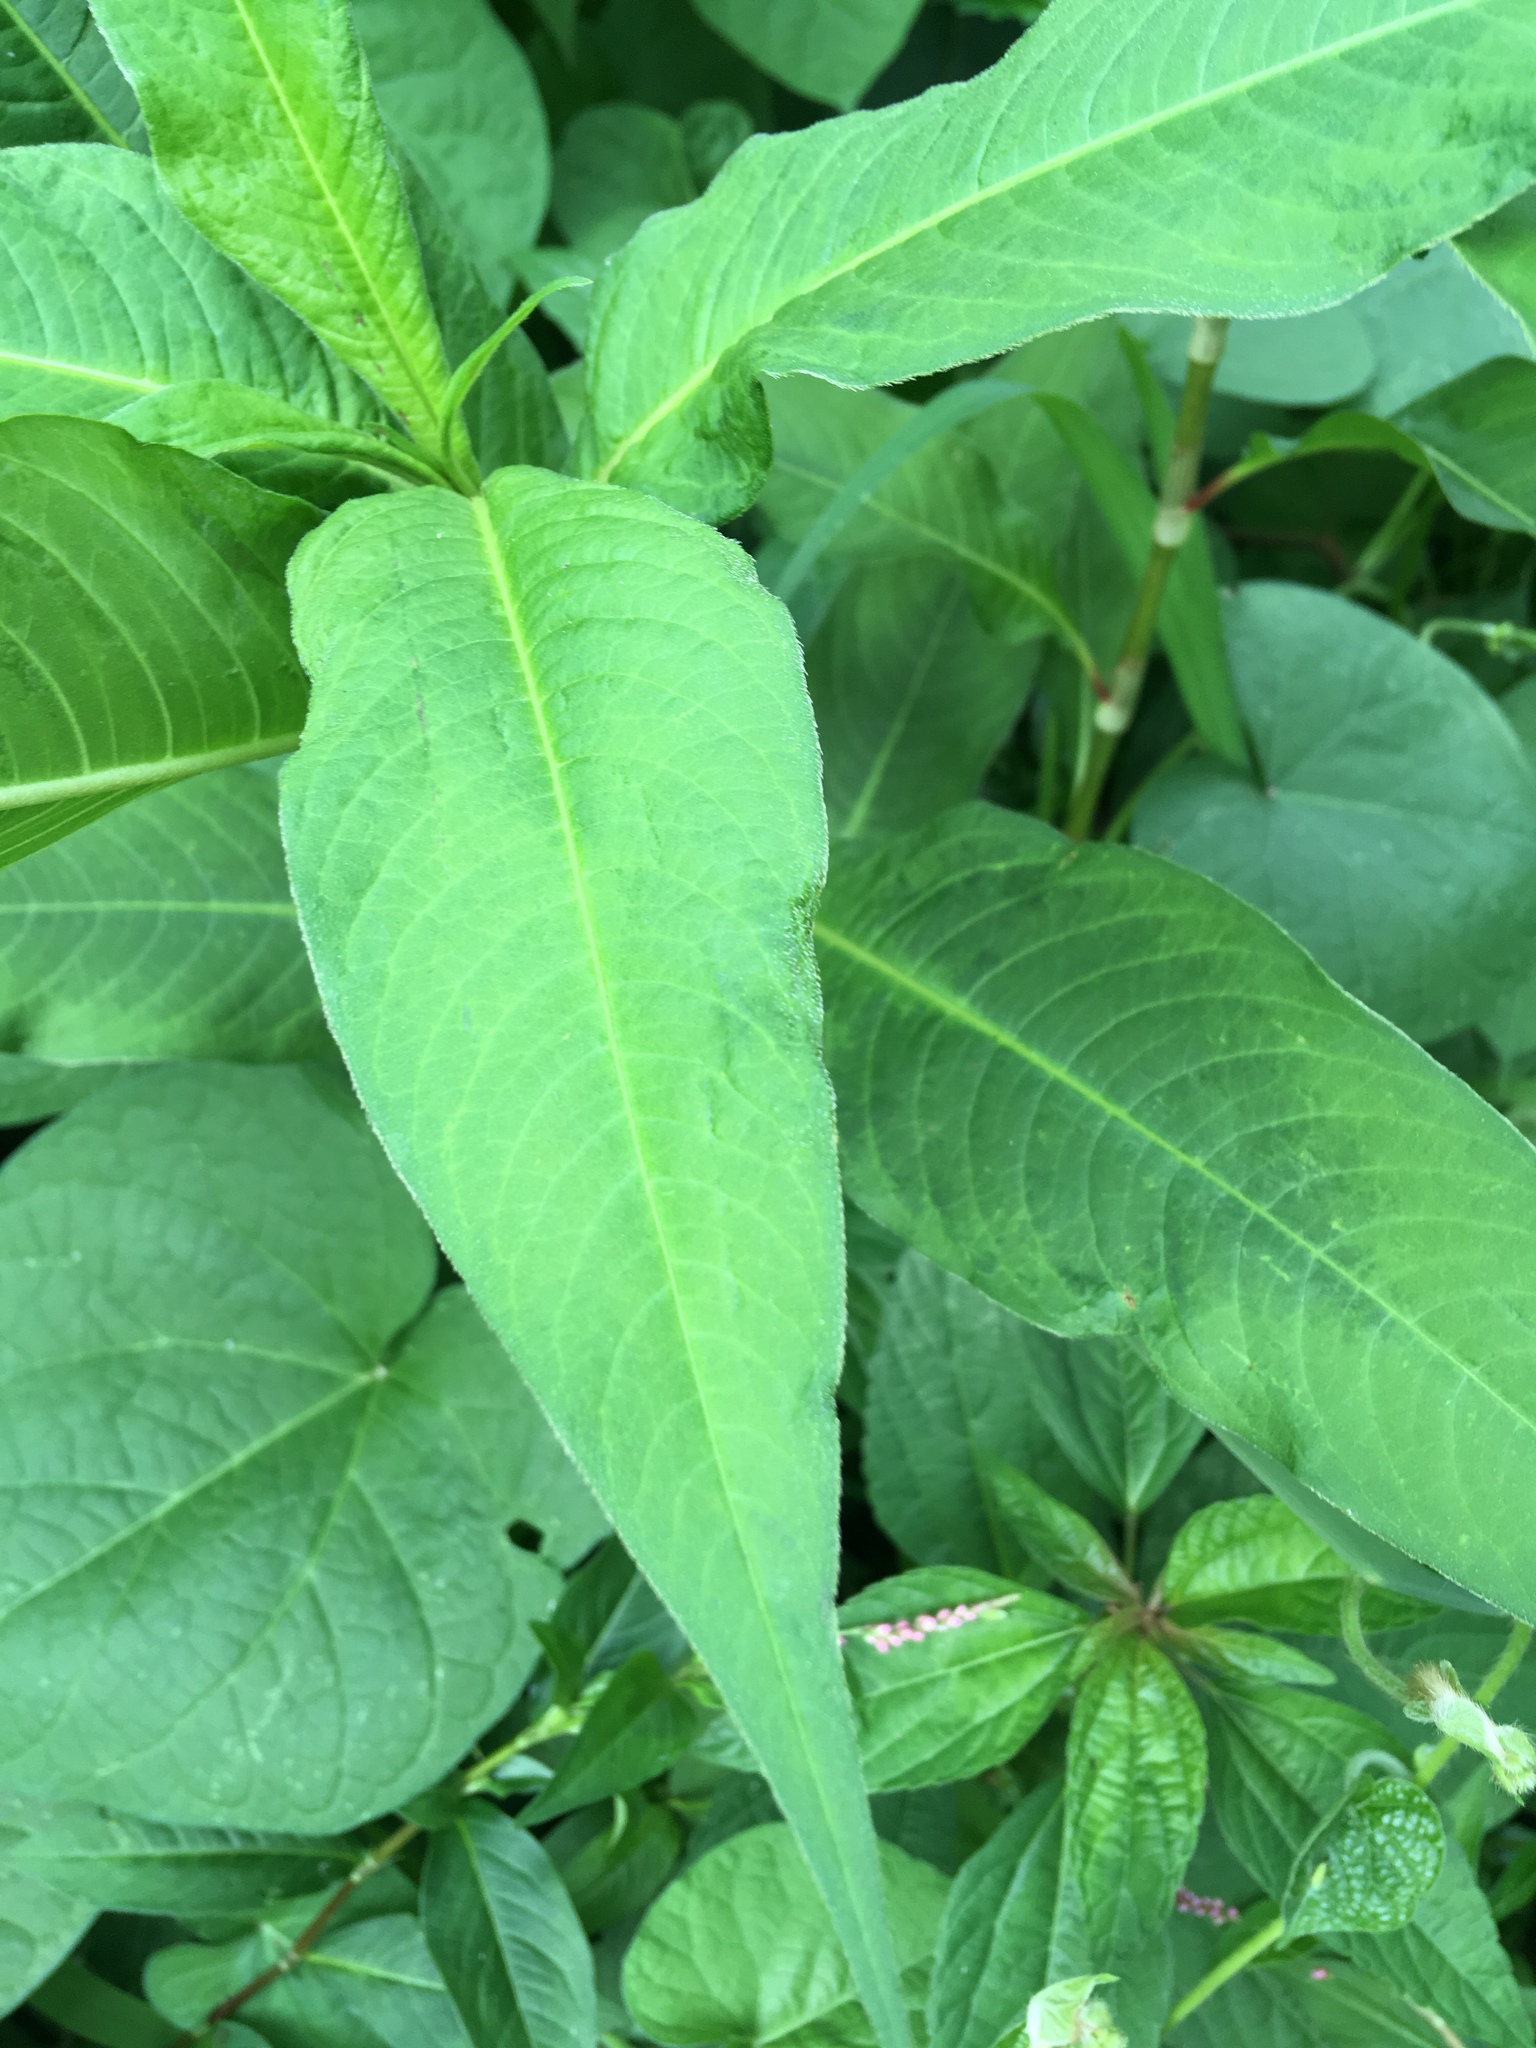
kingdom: Plantae
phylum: Tracheophyta
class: Magnoliopsida
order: Caryophyllales
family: Polygonaceae
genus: Persicaria
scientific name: Persicaria extremiorientalis
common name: Far-eastern smartweed
